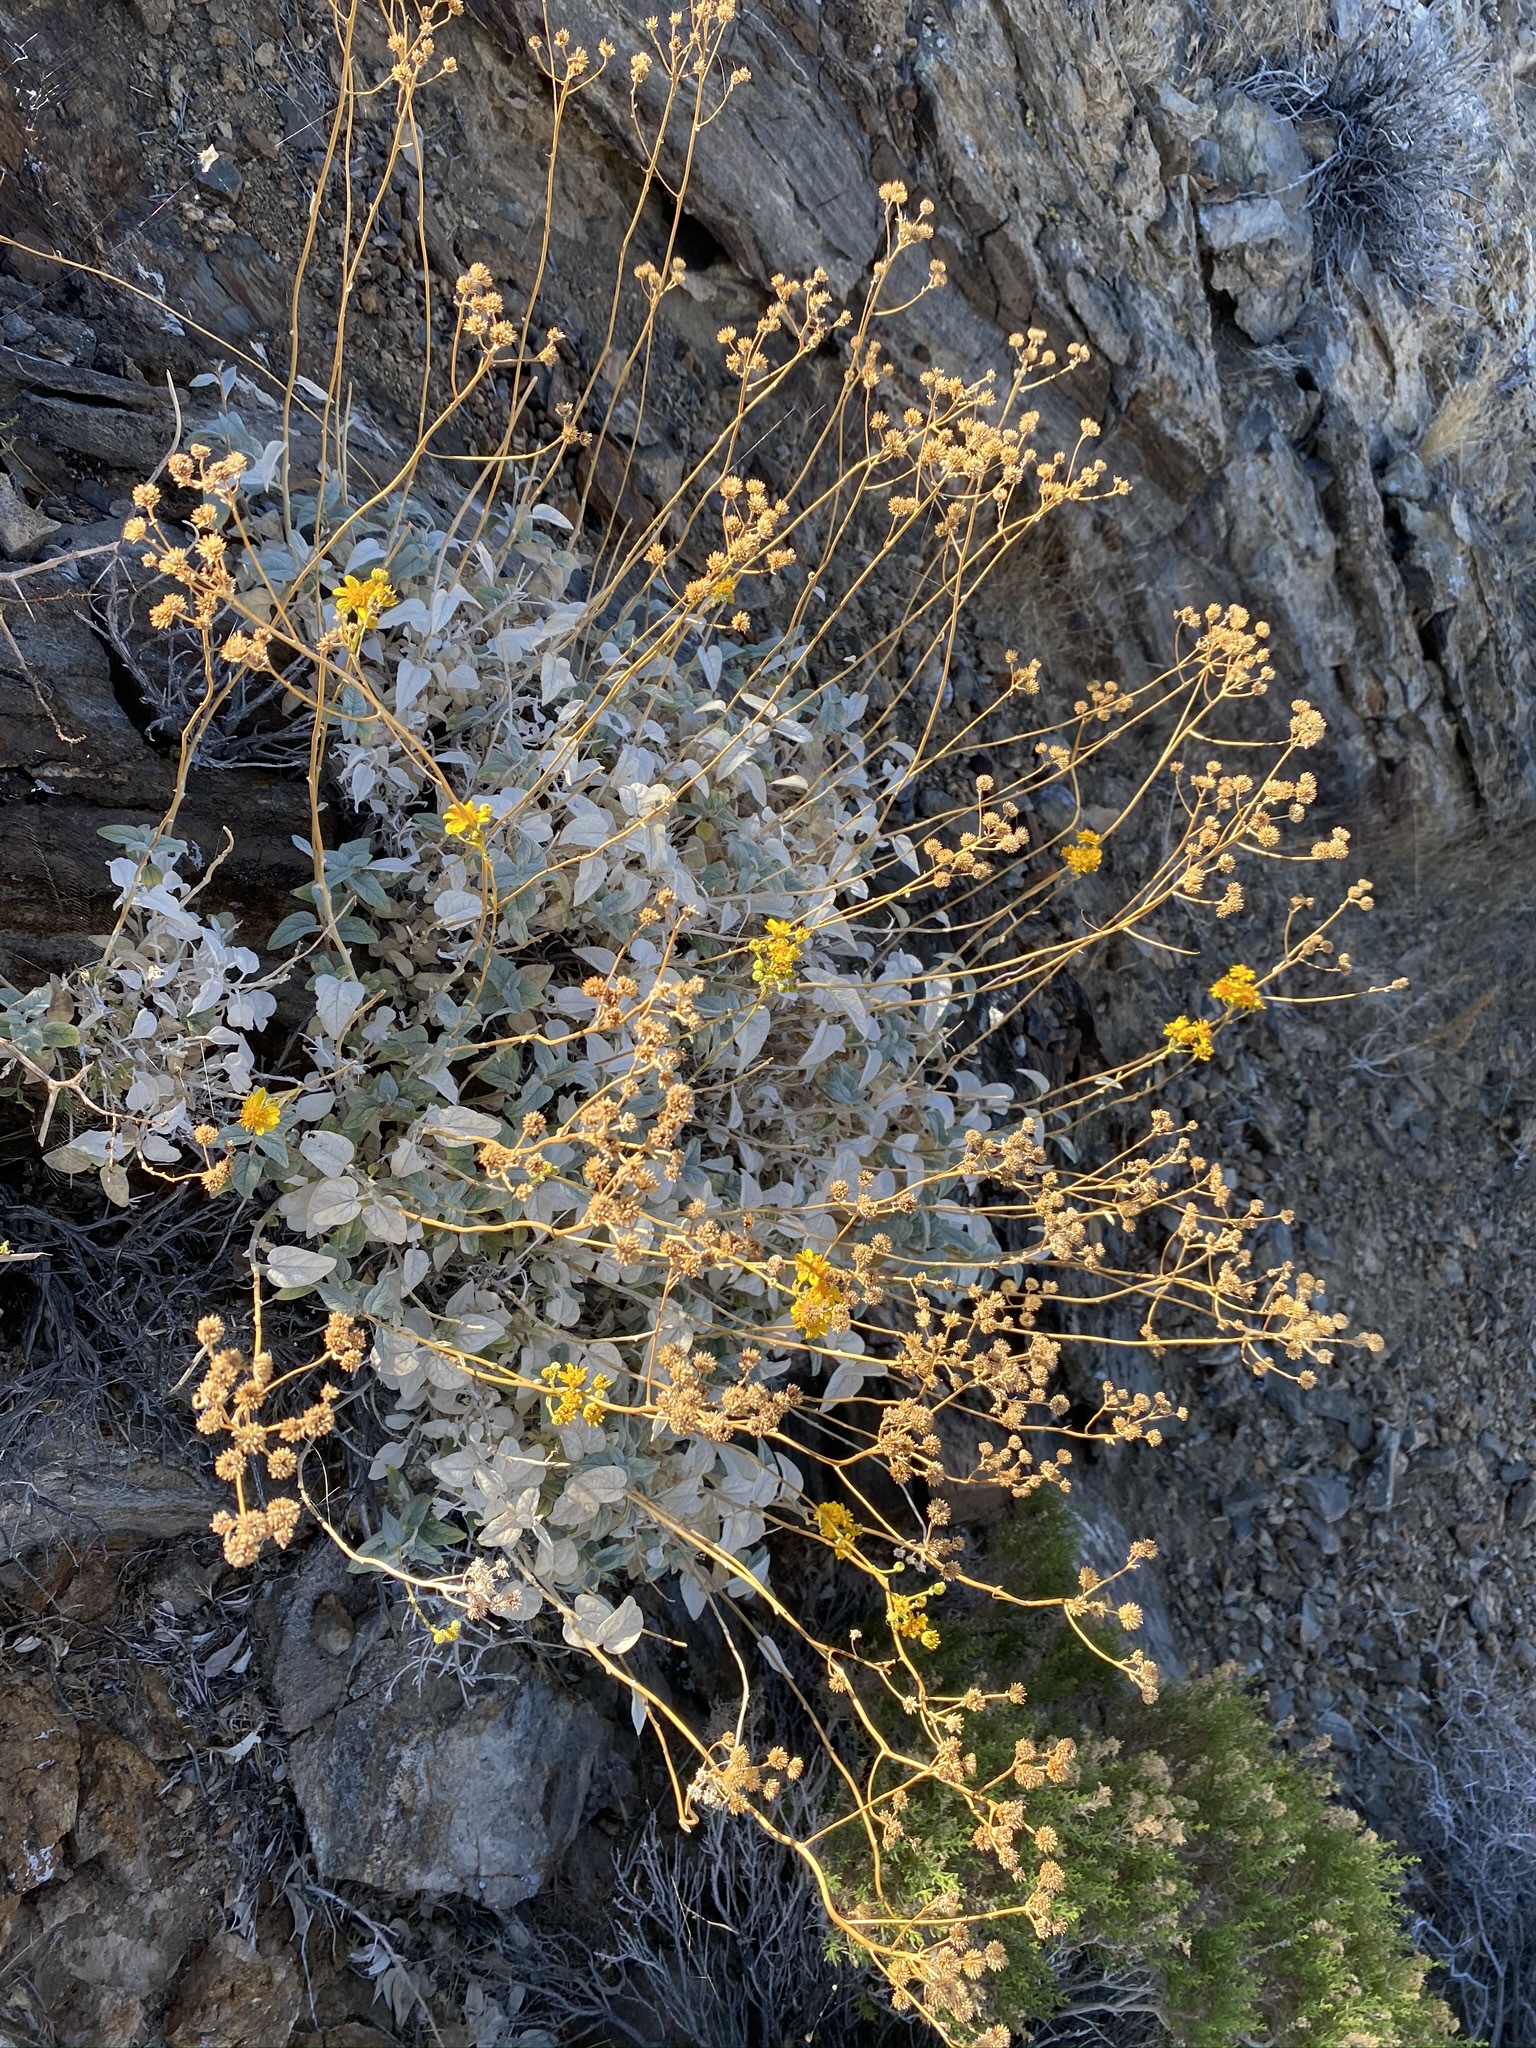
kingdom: Plantae
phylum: Tracheophyta
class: Magnoliopsida
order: Asterales
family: Asteraceae
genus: Bahiopsis
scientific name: Bahiopsis reticulata
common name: Death valley goldeneye
